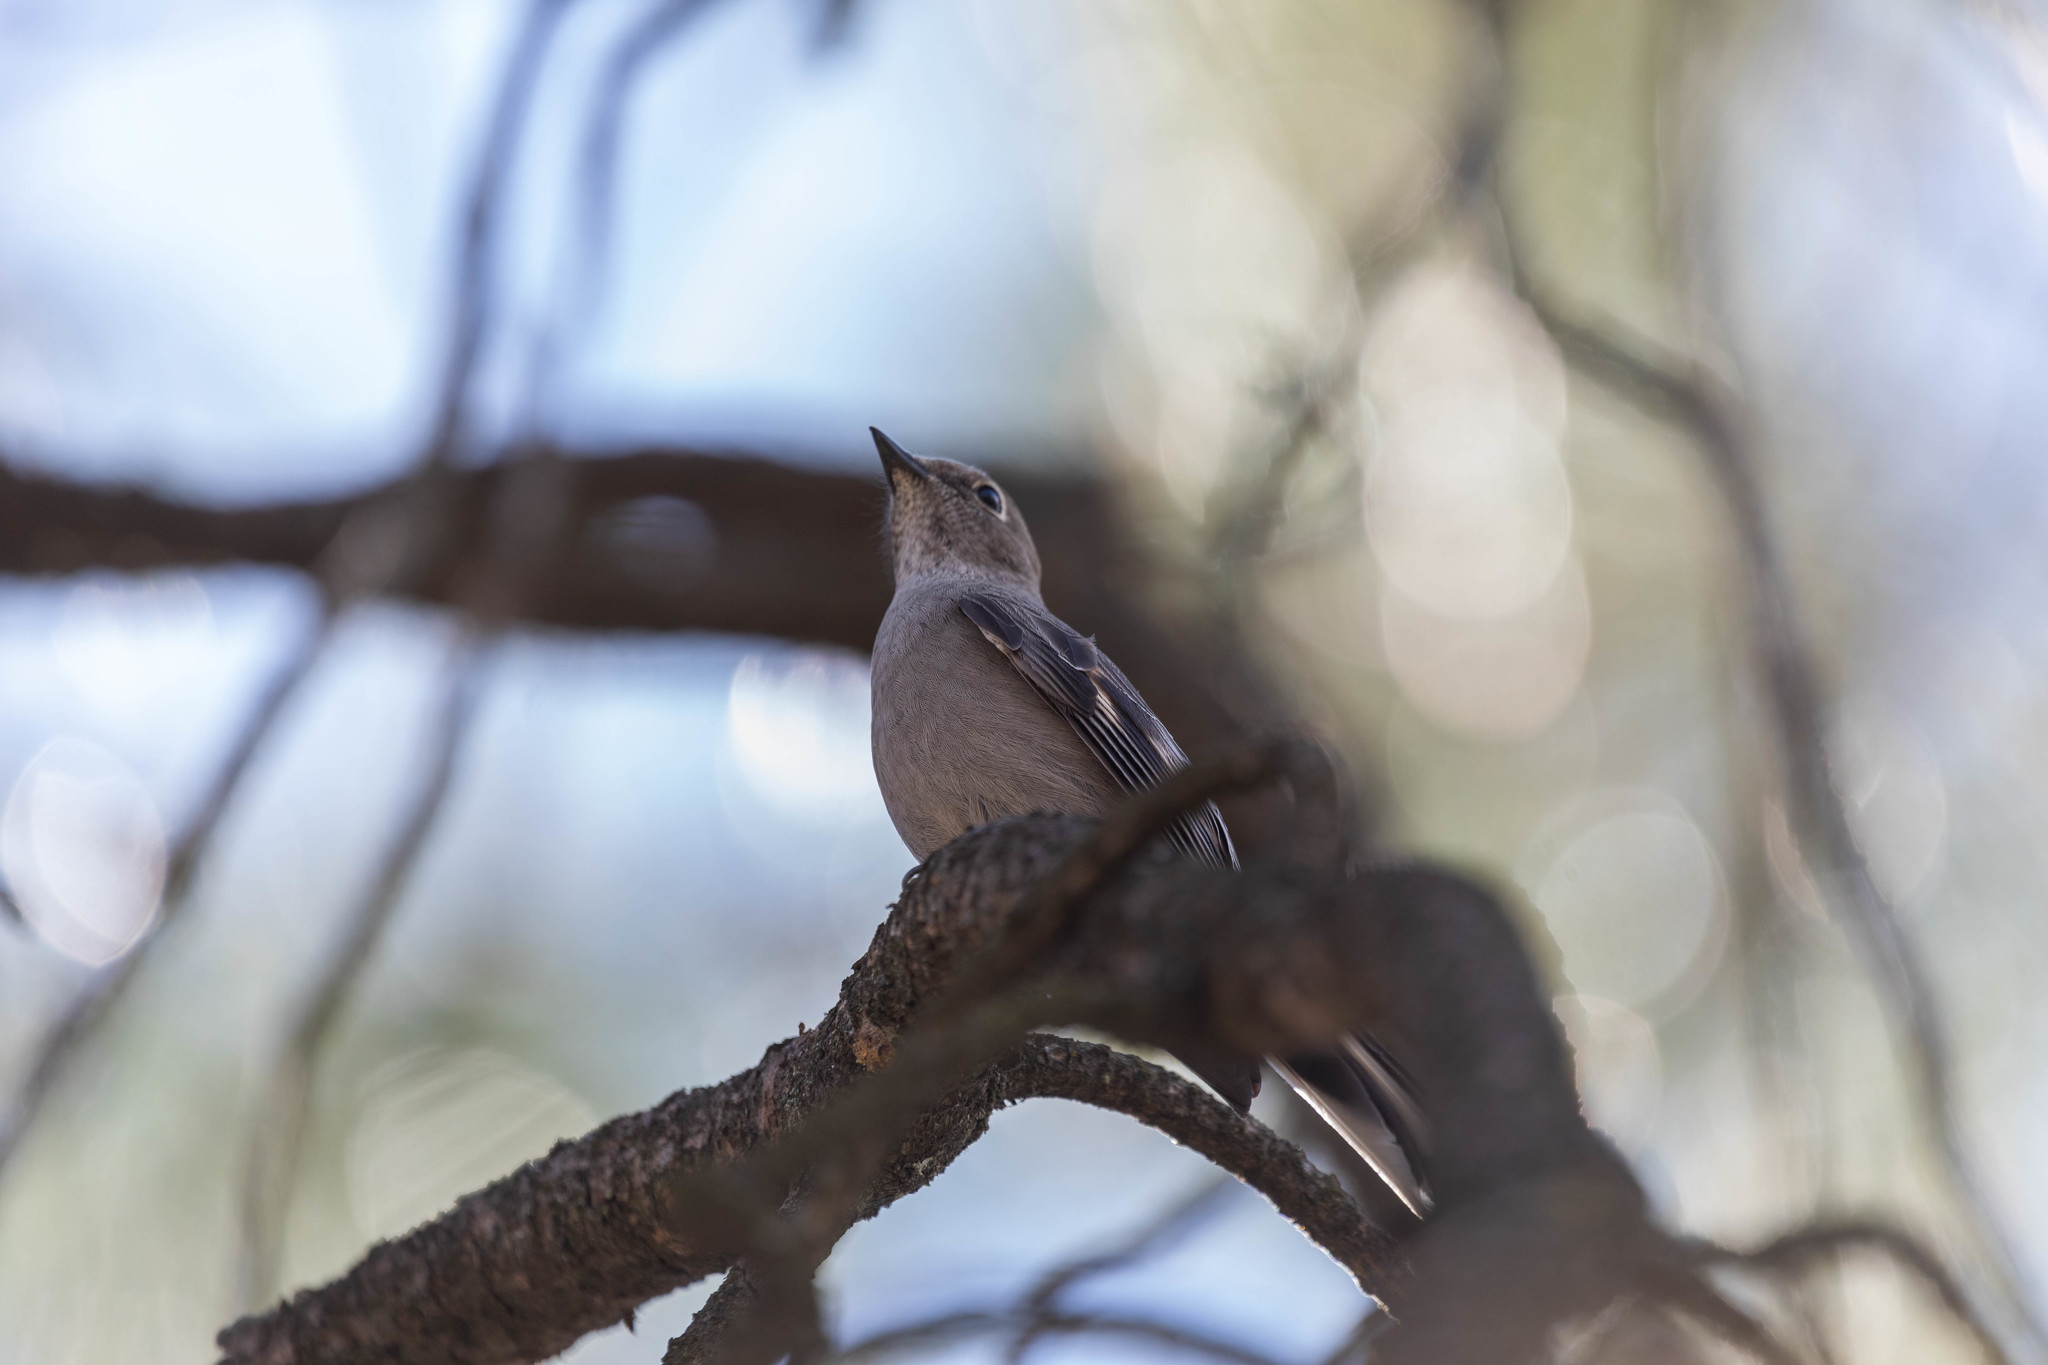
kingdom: Animalia
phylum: Chordata
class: Aves
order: Passeriformes
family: Turdidae
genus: Myadestes
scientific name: Myadestes townsendi
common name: Townsend's solitaire
